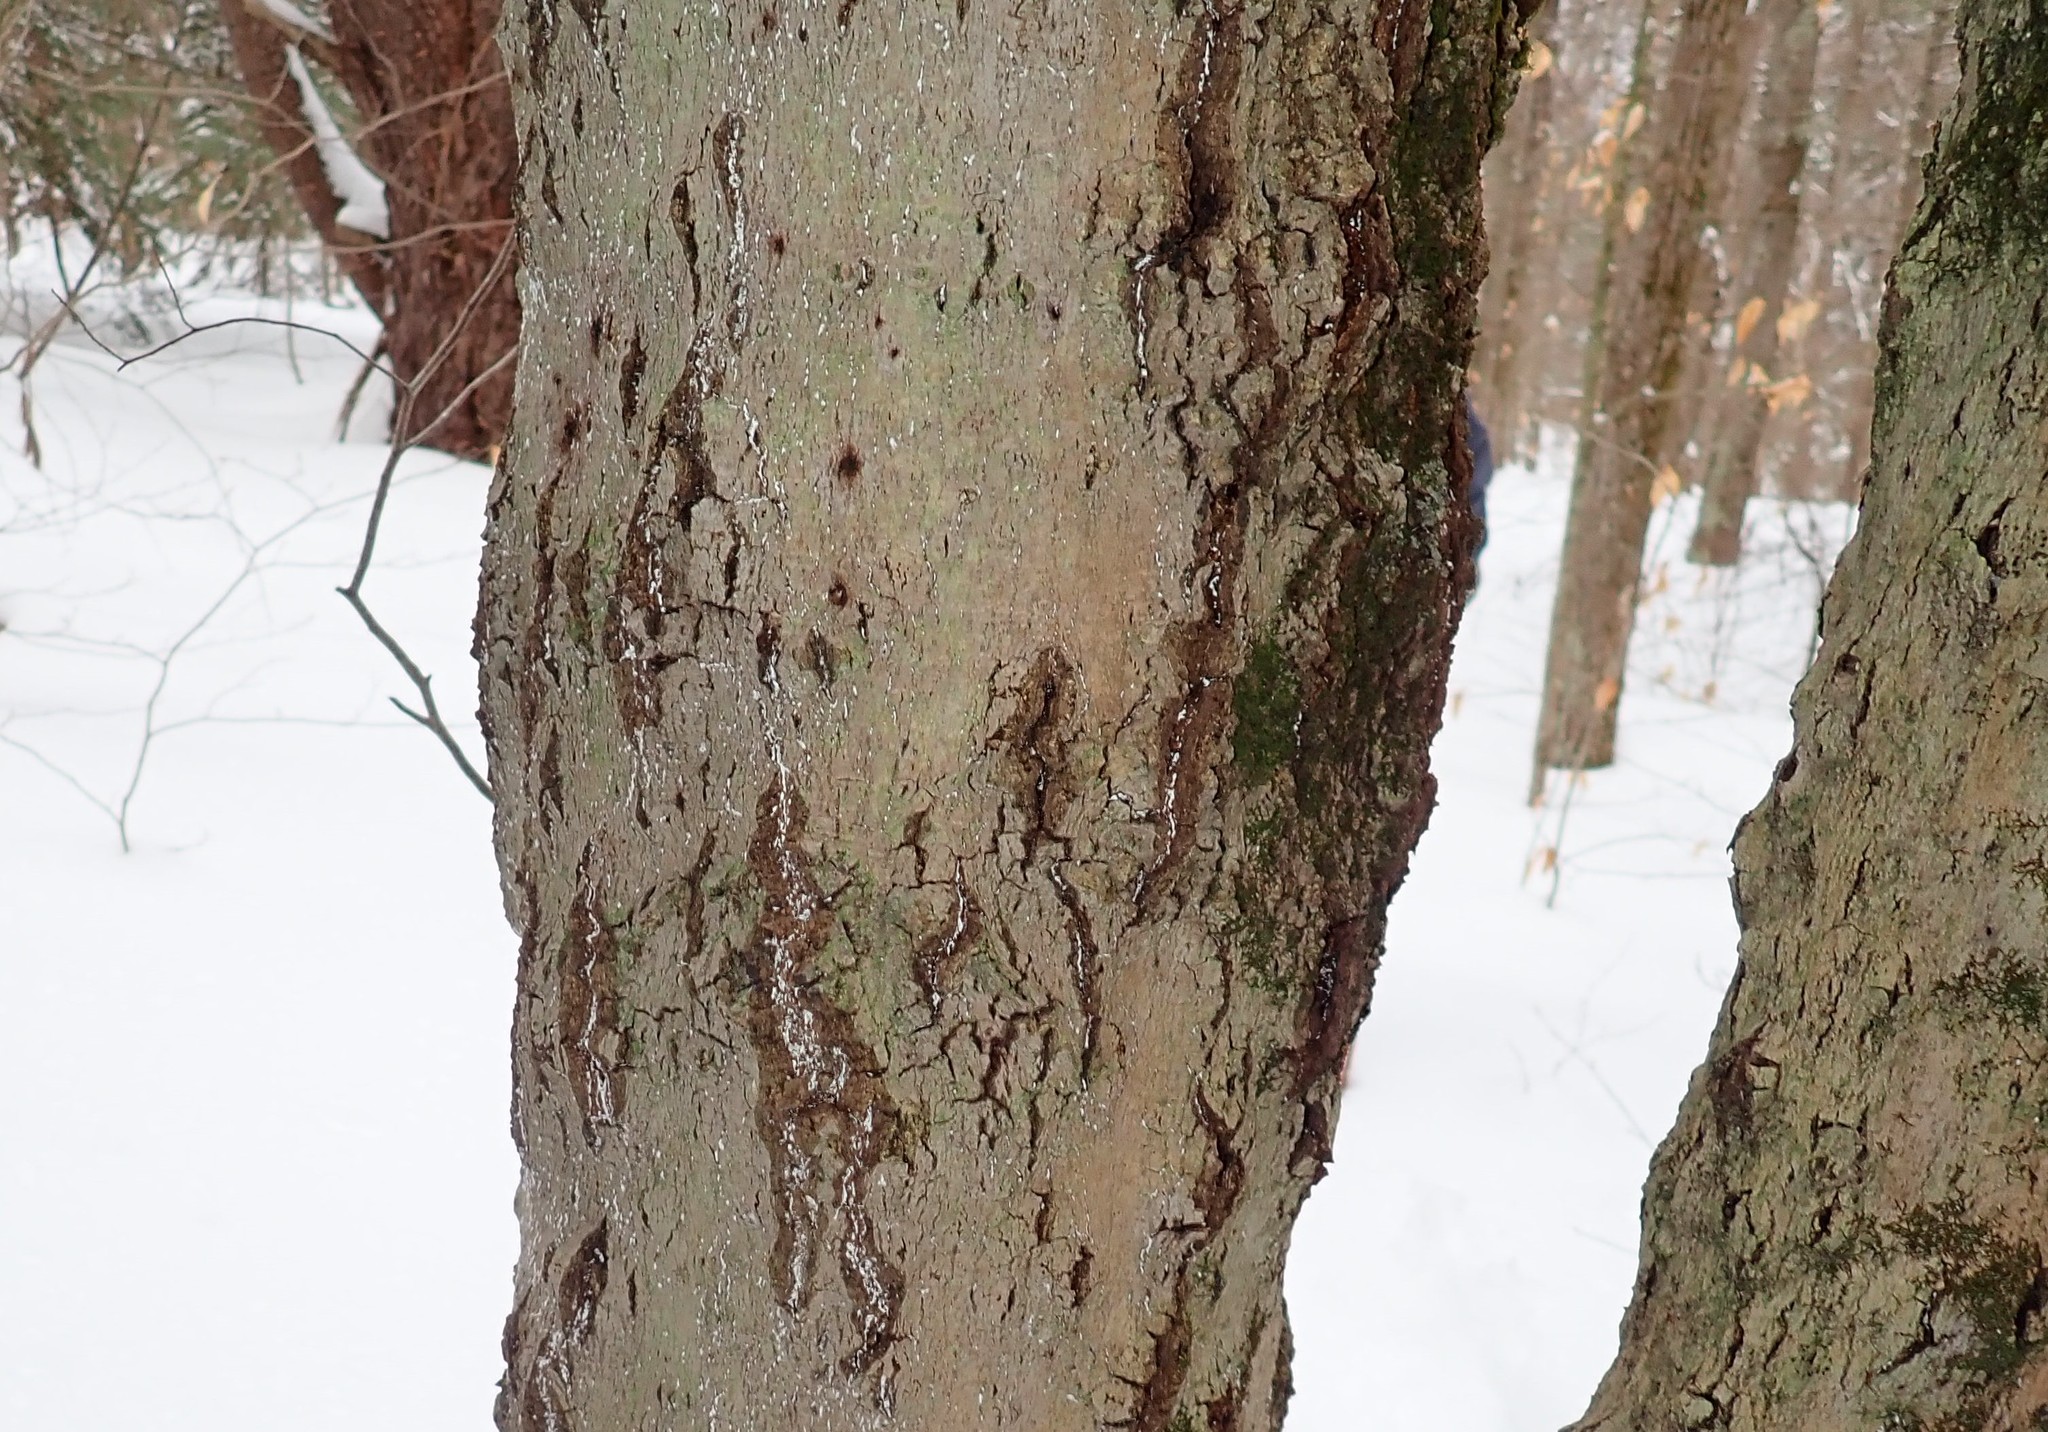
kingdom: Animalia
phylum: Arthropoda
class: Insecta
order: Hemiptera
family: Eriococcidae
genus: Cryptococcus
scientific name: Cryptococcus fagisuga
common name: Beech scale
